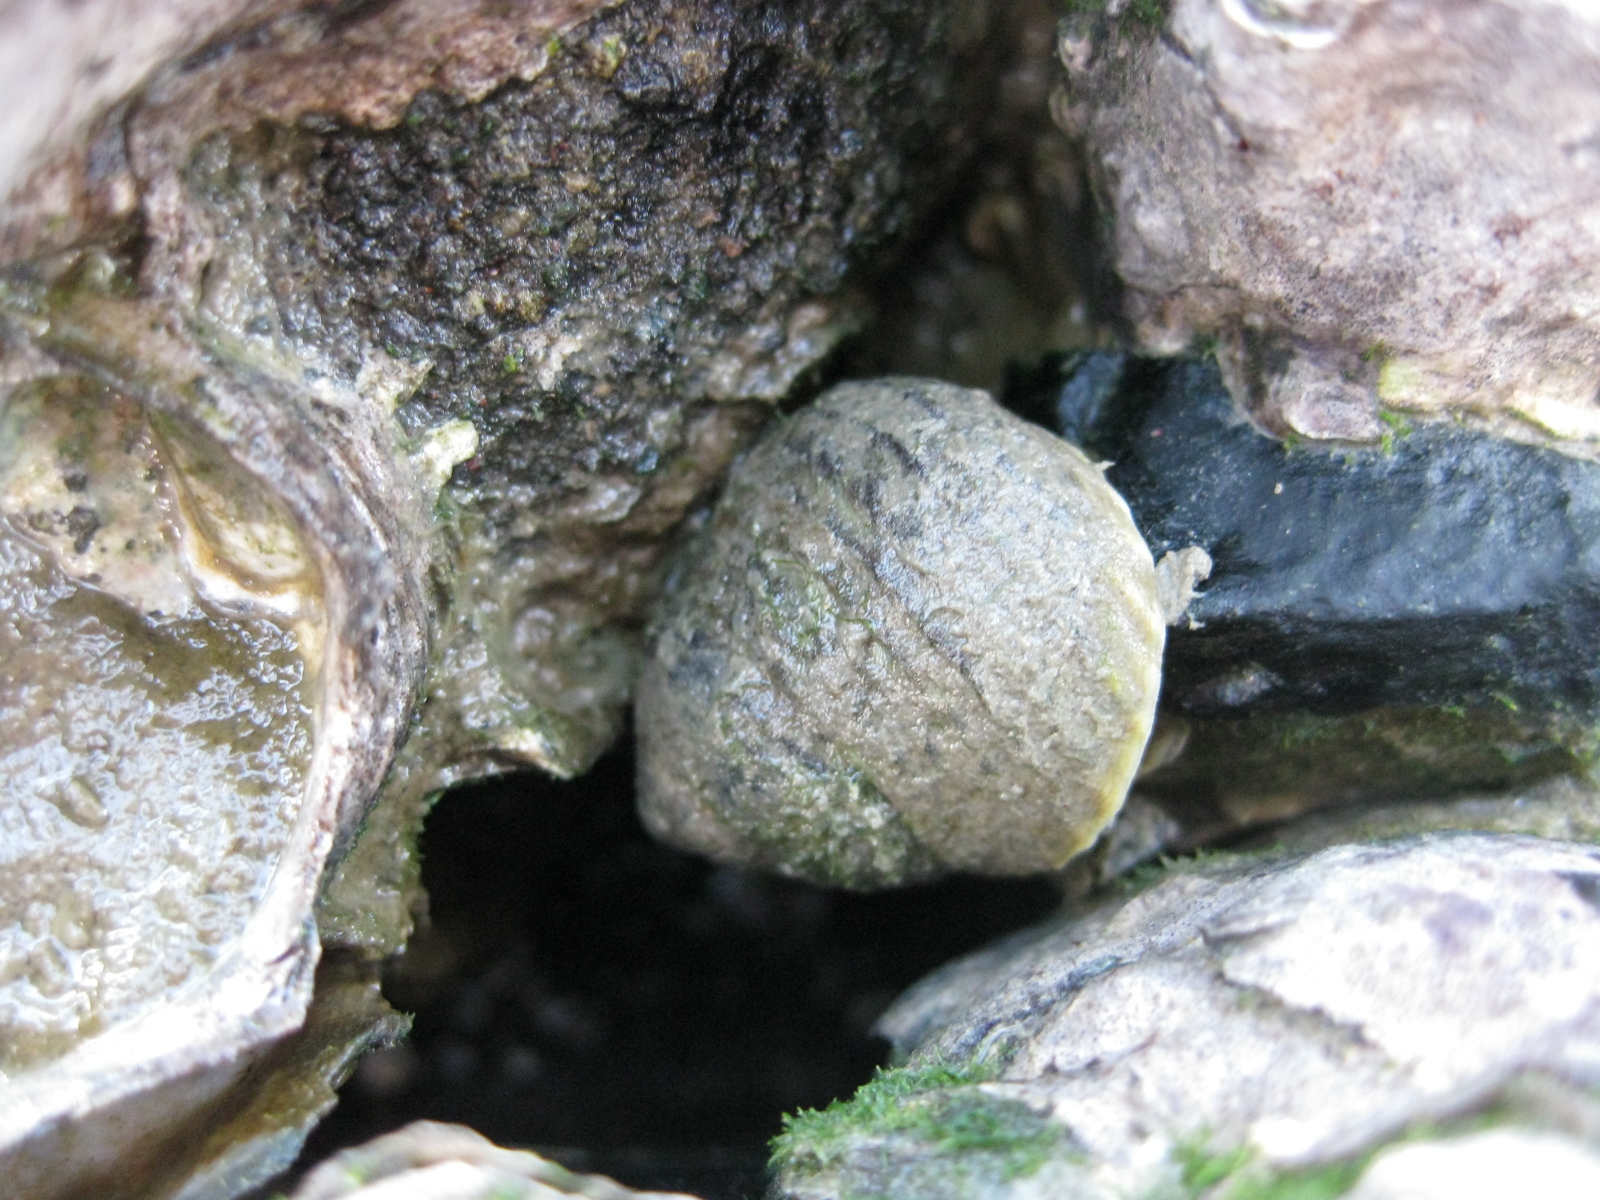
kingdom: Animalia
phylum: Mollusca
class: Gastropoda
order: Trochida
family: Trochidae
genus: Diloma
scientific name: Diloma subrostratum
